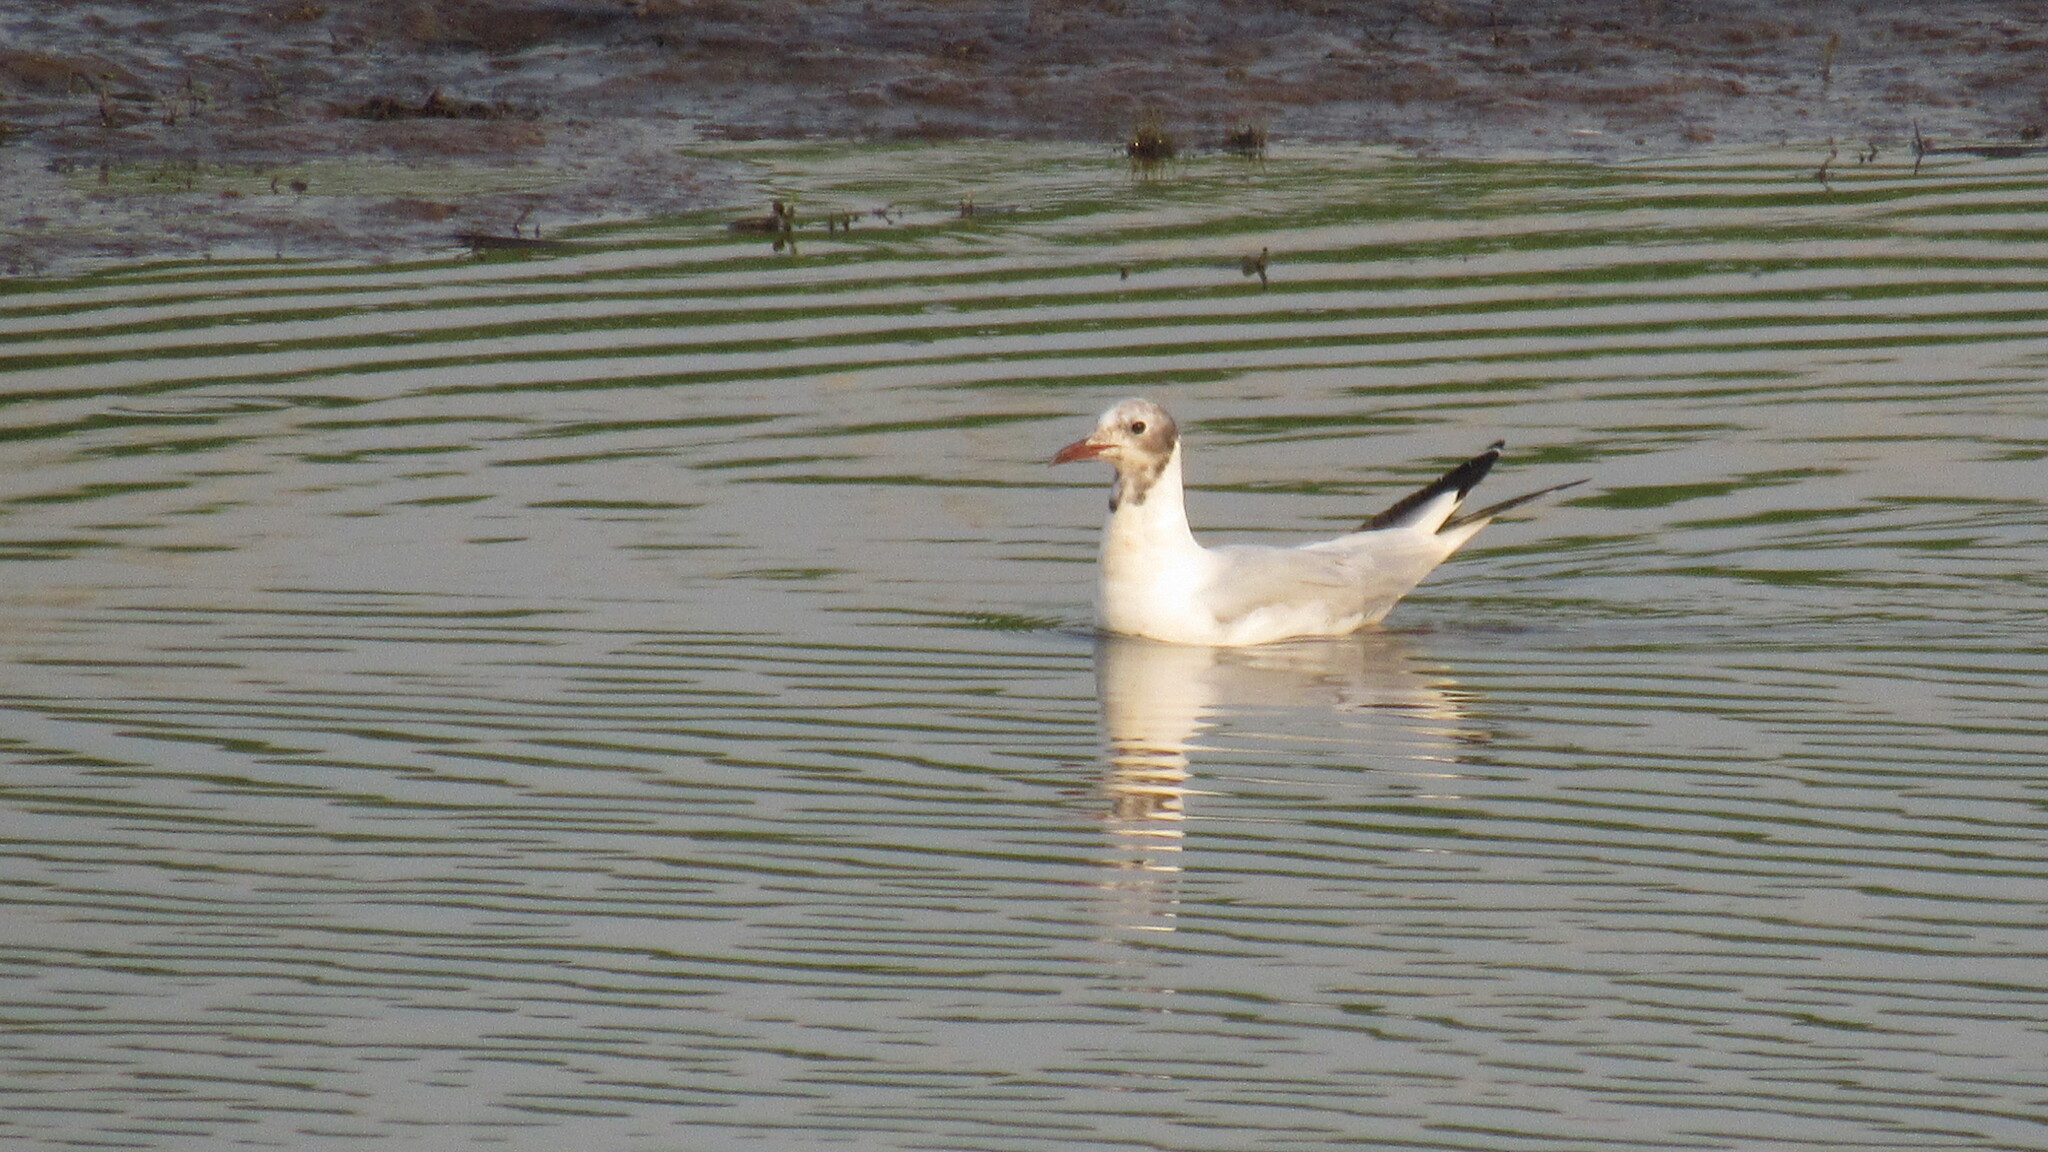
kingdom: Animalia
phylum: Chordata
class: Aves
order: Charadriiformes
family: Laridae
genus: Chroicocephalus
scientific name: Chroicocephalus ridibundus
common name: Black-headed gull
